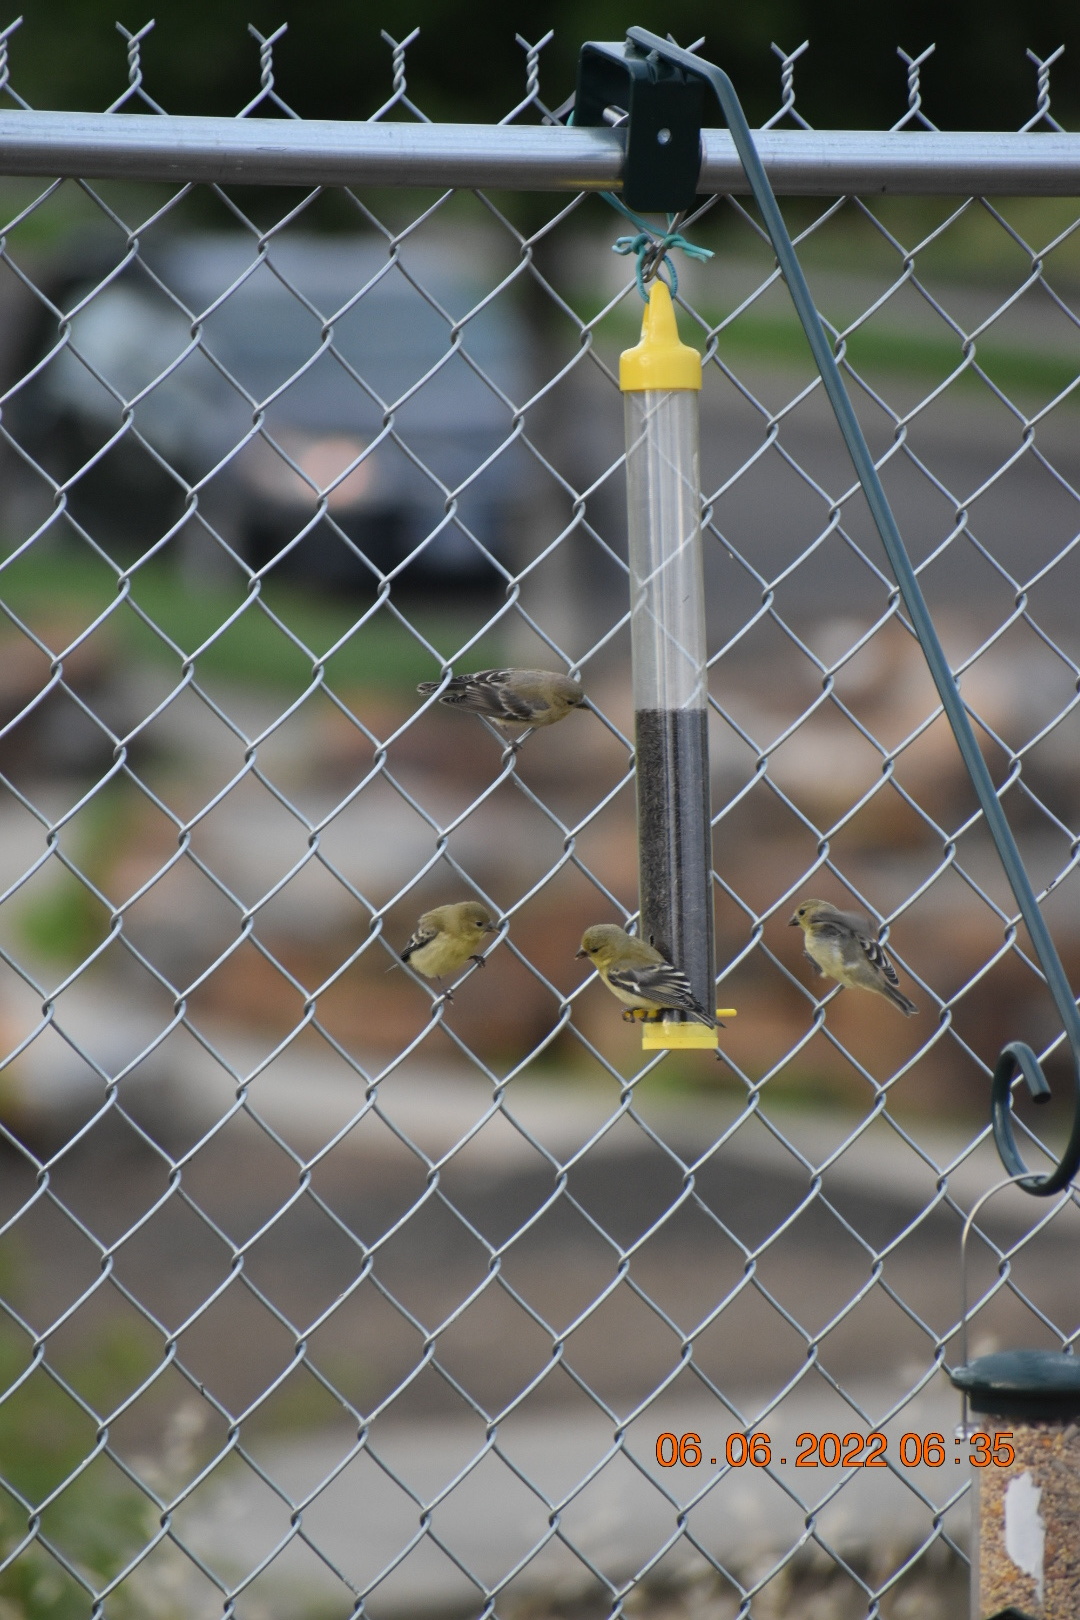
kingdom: Animalia
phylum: Chordata
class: Aves
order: Passeriformes
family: Fringillidae
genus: Spinus
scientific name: Spinus psaltria
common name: Lesser goldfinch
